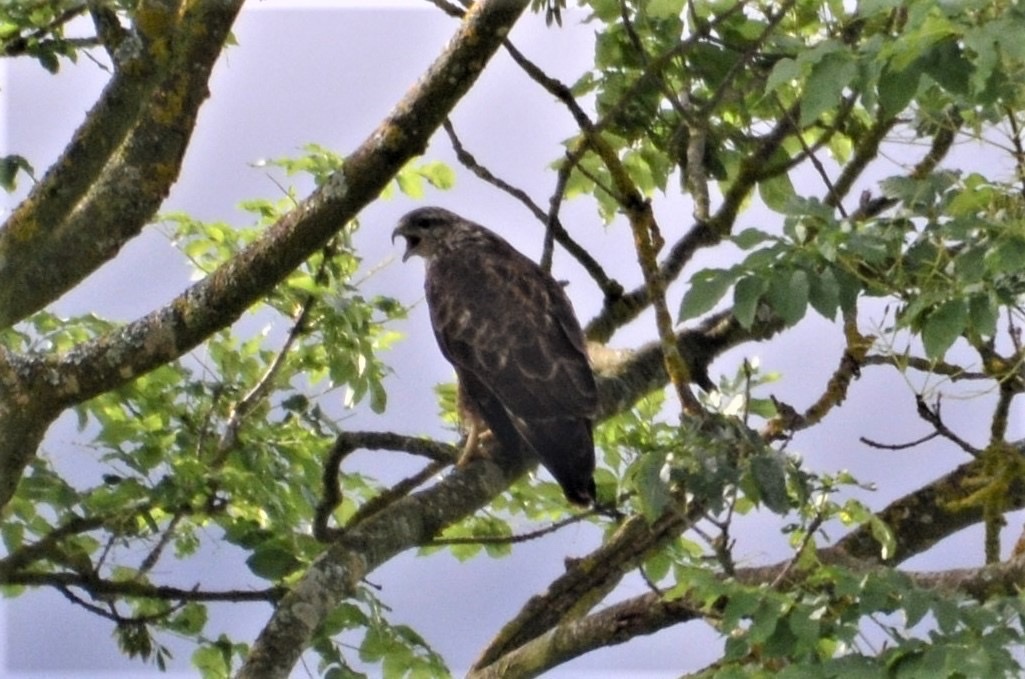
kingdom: Animalia
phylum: Chordata
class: Aves
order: Accipitriformes
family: Accipitridae
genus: Buteo
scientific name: Buteo buteo
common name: Common buzzard
